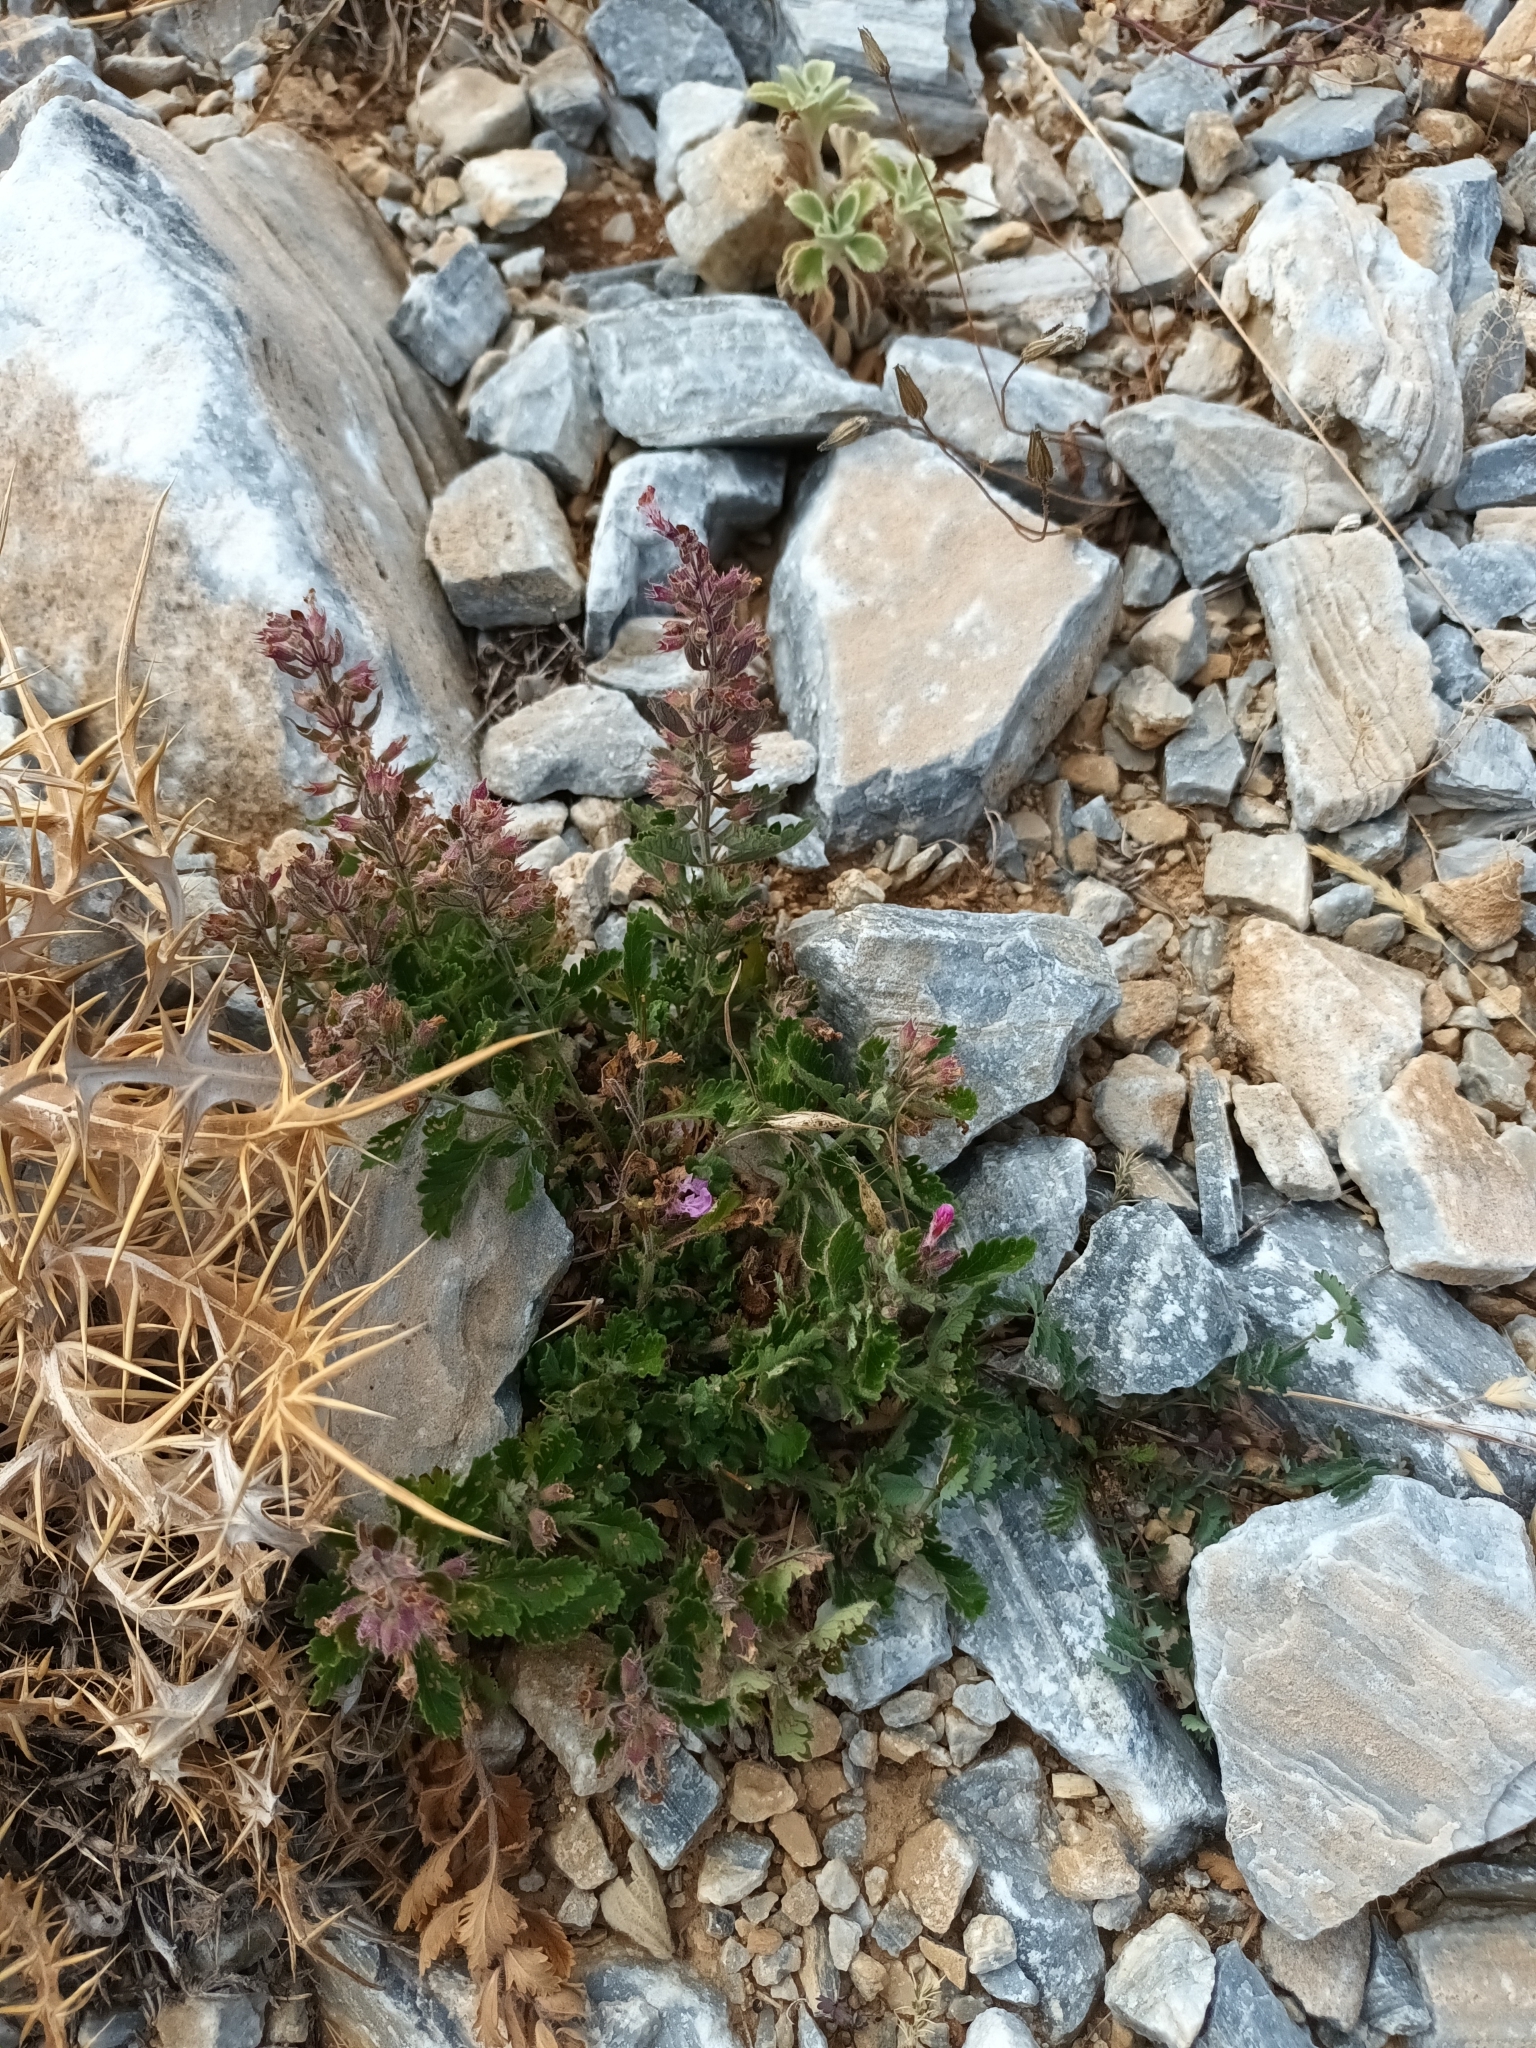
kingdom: Plantae
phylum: Tracheophyta
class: Magnoliopsida
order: Lamiales
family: Lamiaceae
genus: Teucrium
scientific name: Teucrium chamaedrys
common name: Wall germander
